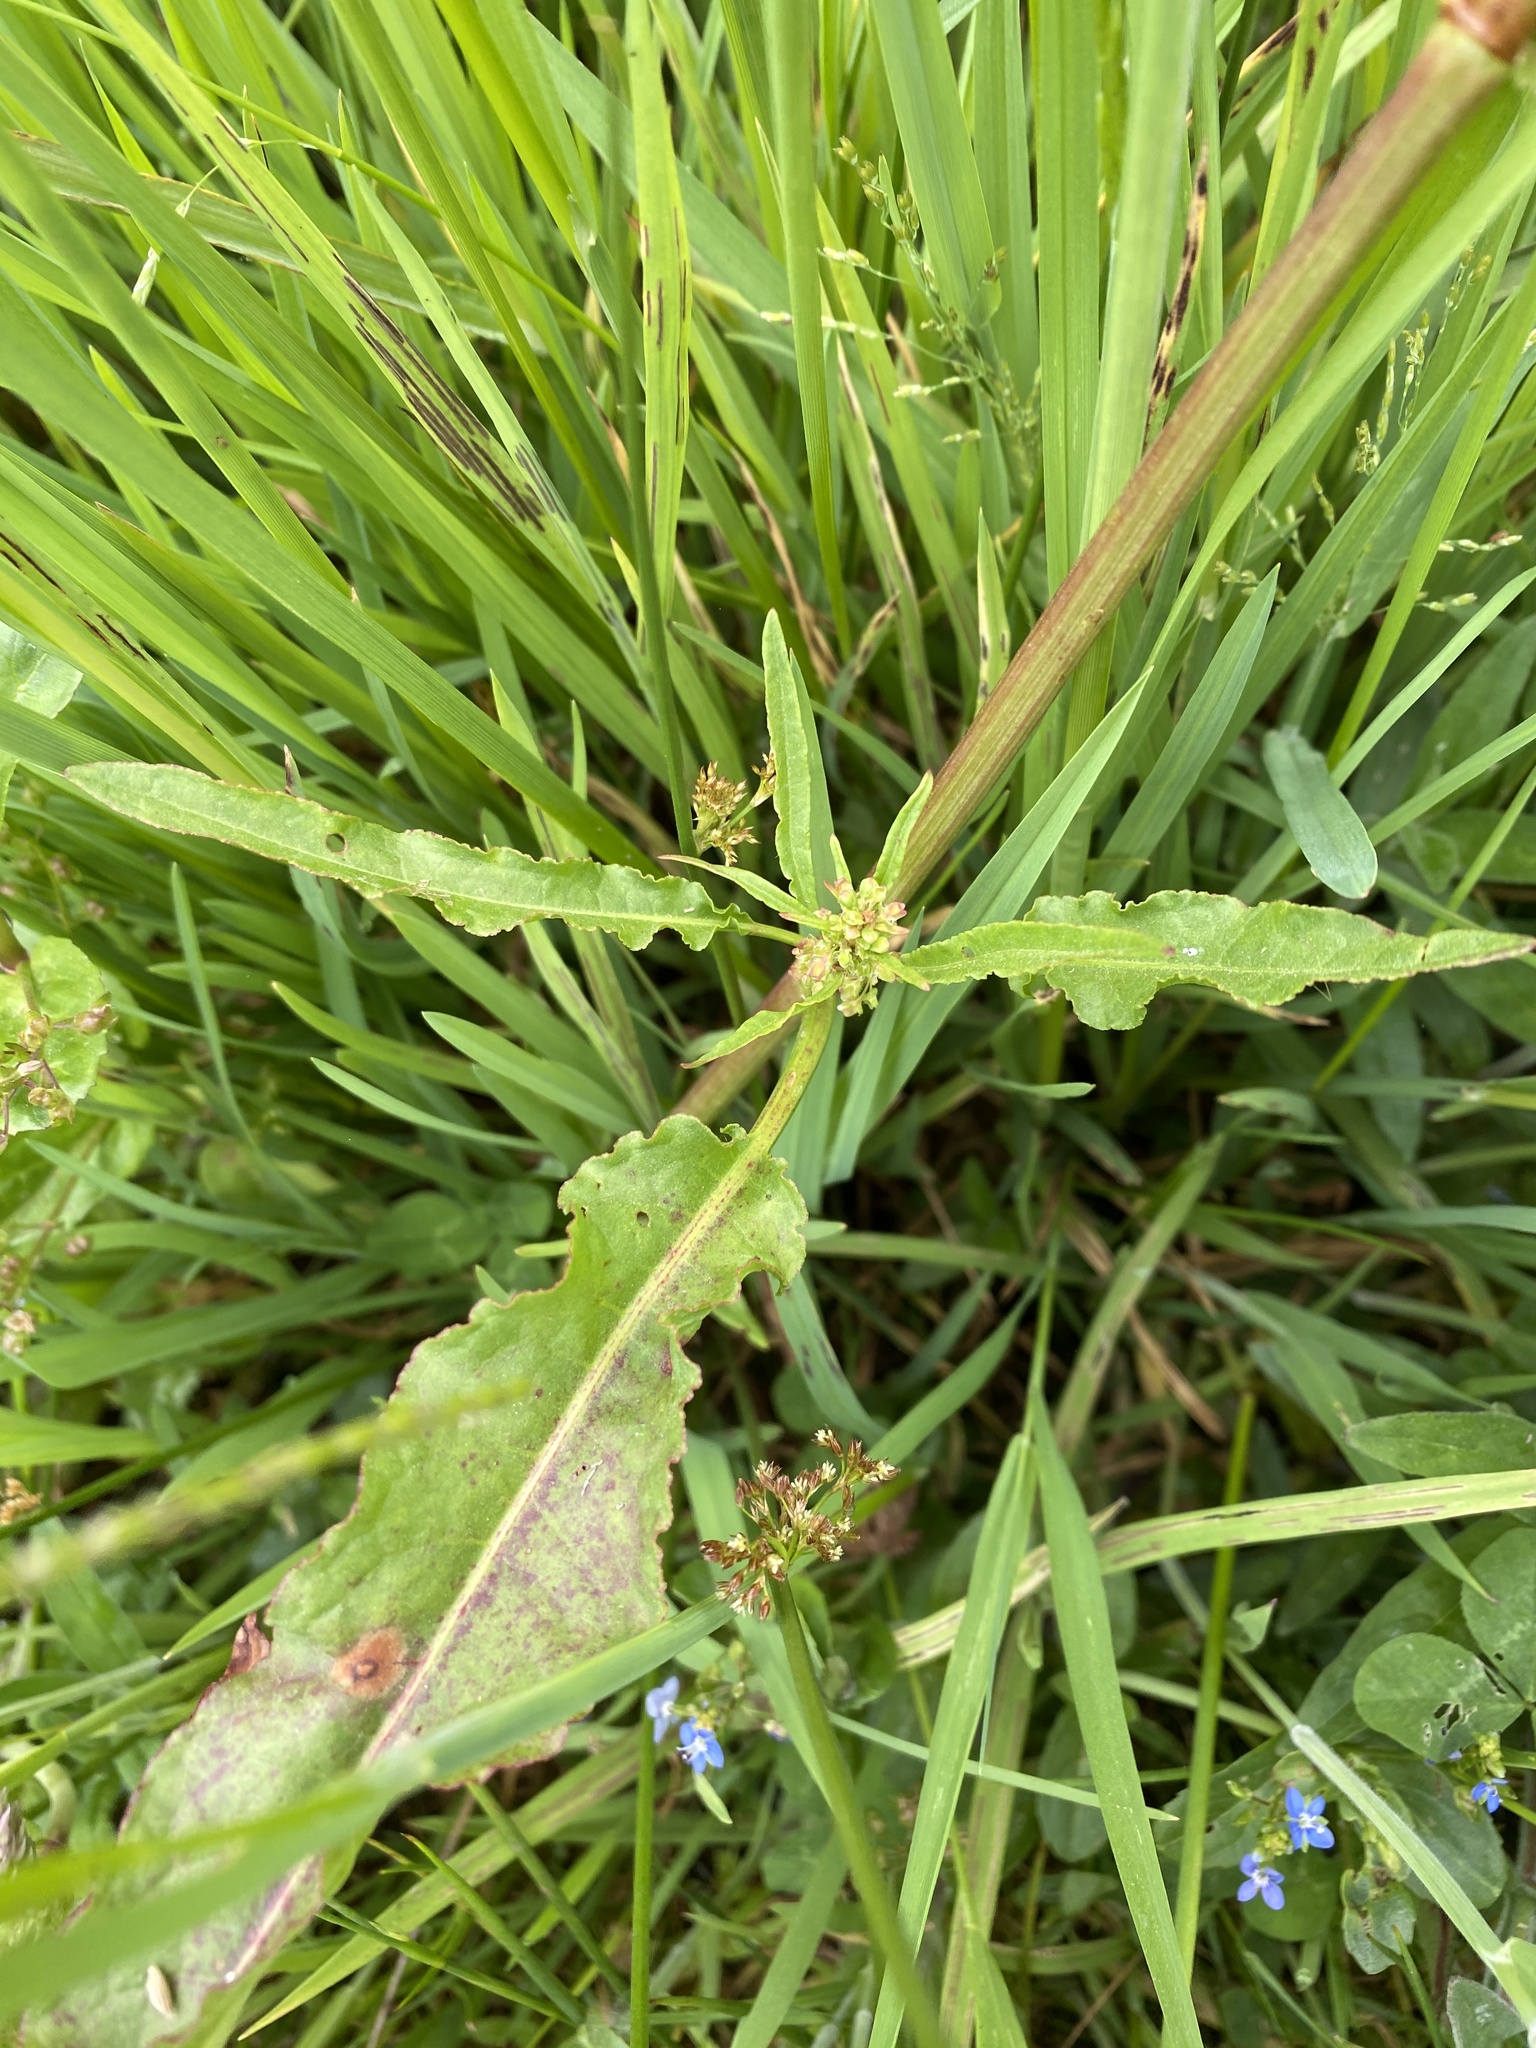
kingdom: Plantae
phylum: Tracheophyta
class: Magnoliopsida
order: Caryophyllales
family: Polygonaceae
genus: Rumex
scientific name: Rumex crispus
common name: Curled dock
